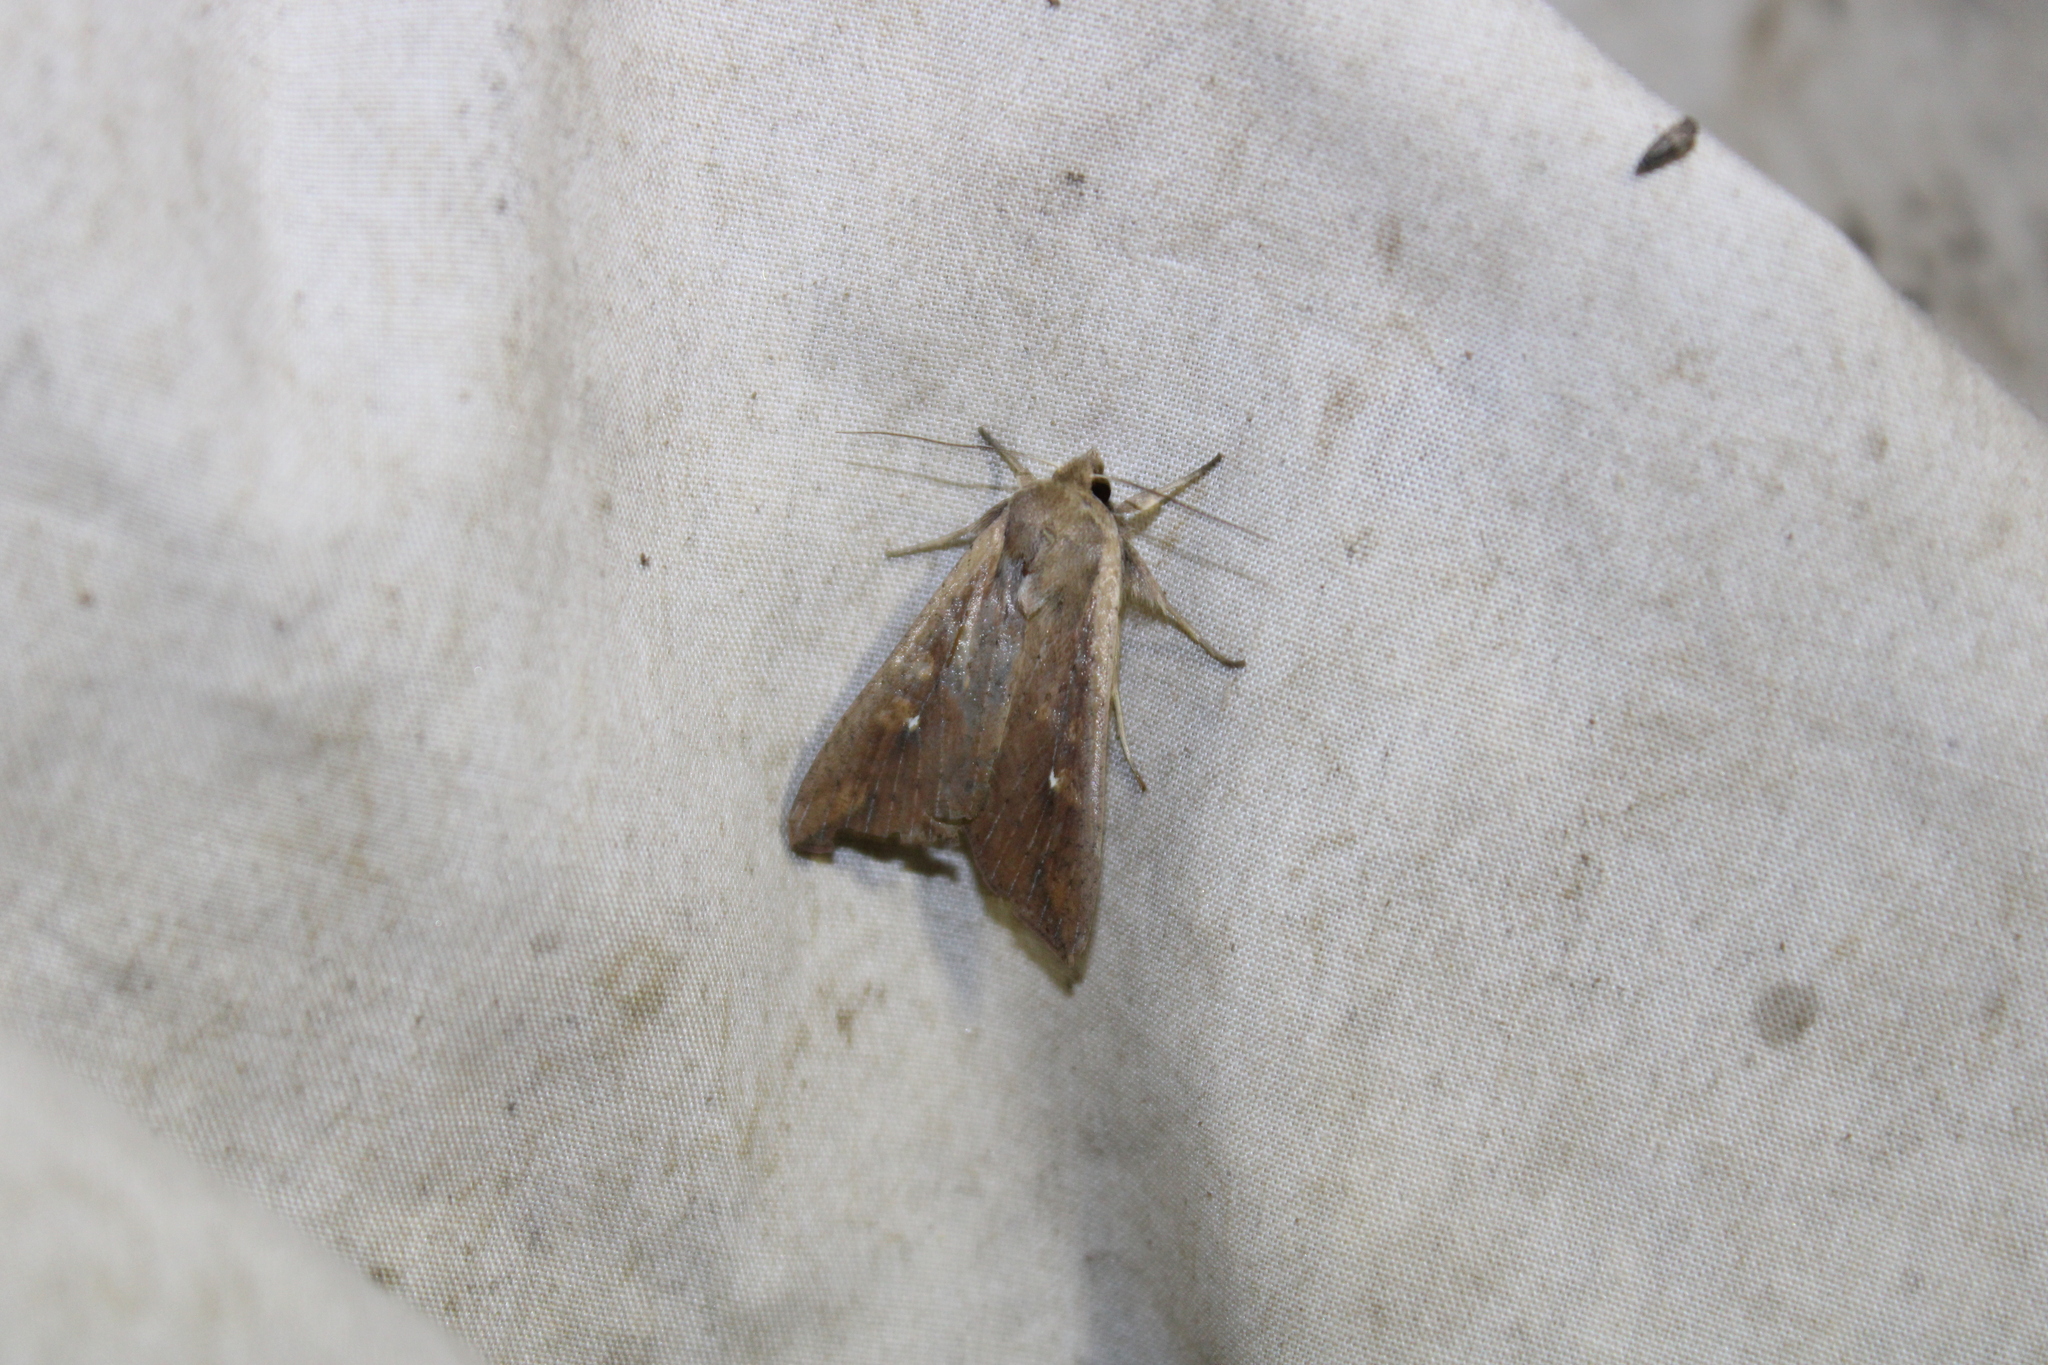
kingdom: Animalia
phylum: Arthropoda
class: Insecta
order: Lepidoptera
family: Noctuidae
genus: Mythimna
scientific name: Mythimna unipuncta
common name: White-speck
